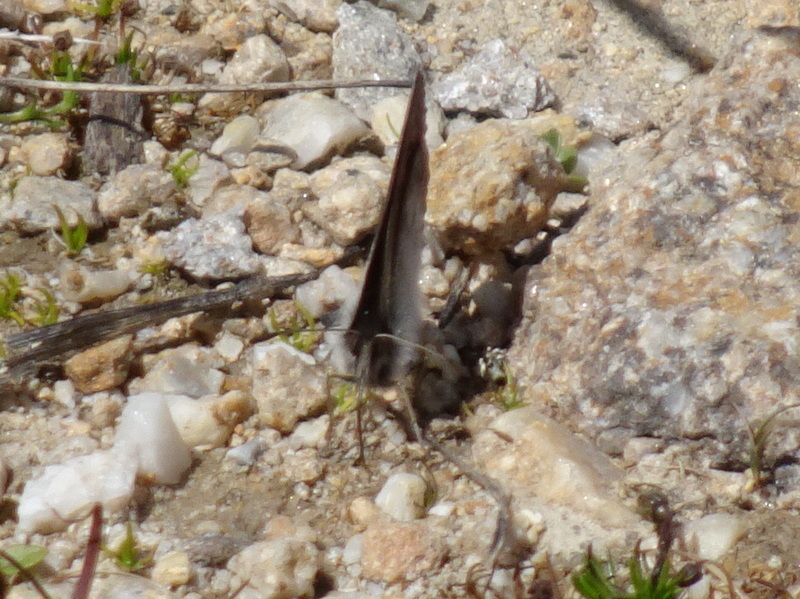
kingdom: Animalia
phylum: Arthropoda
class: Insecta
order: Lepidoptera
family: Nymphalidae
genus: Erebia
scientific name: Erebia cassioides
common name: Common brassy ringlet
